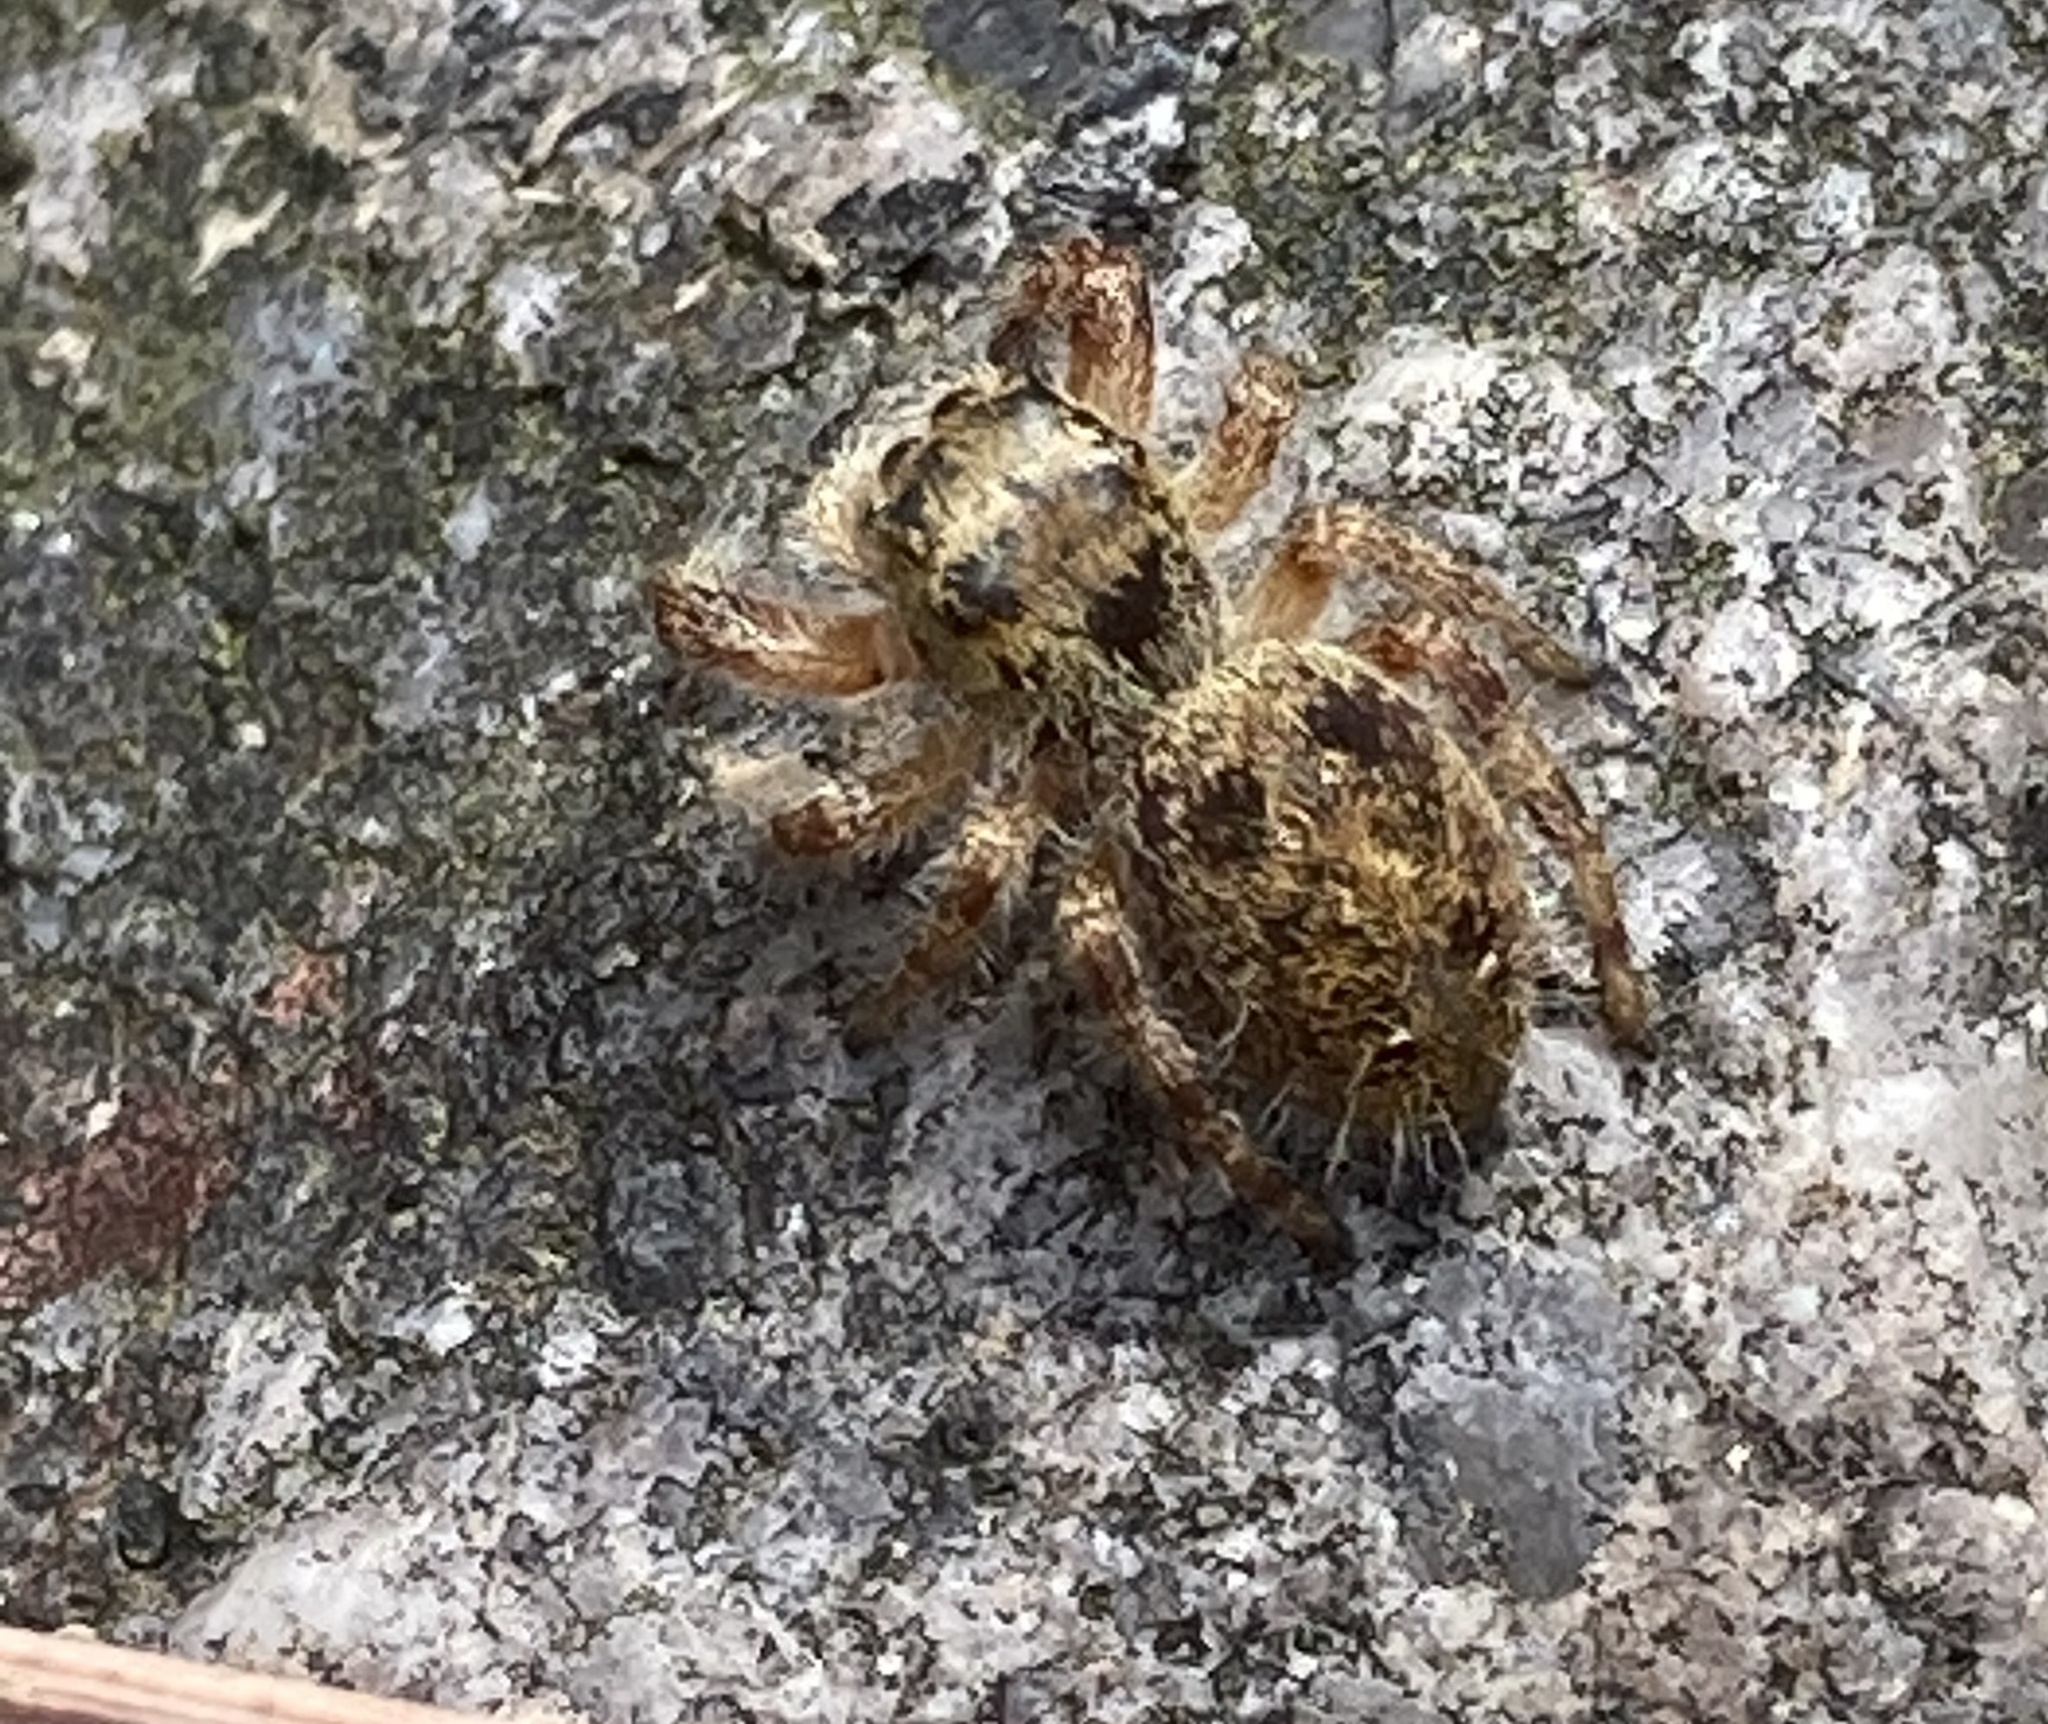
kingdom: Animalia
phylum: Arthropoda
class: Arachnida
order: Araneae
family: Salticidae
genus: Phidippus
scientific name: Phidippus princeps
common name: Grayish jumping spider
